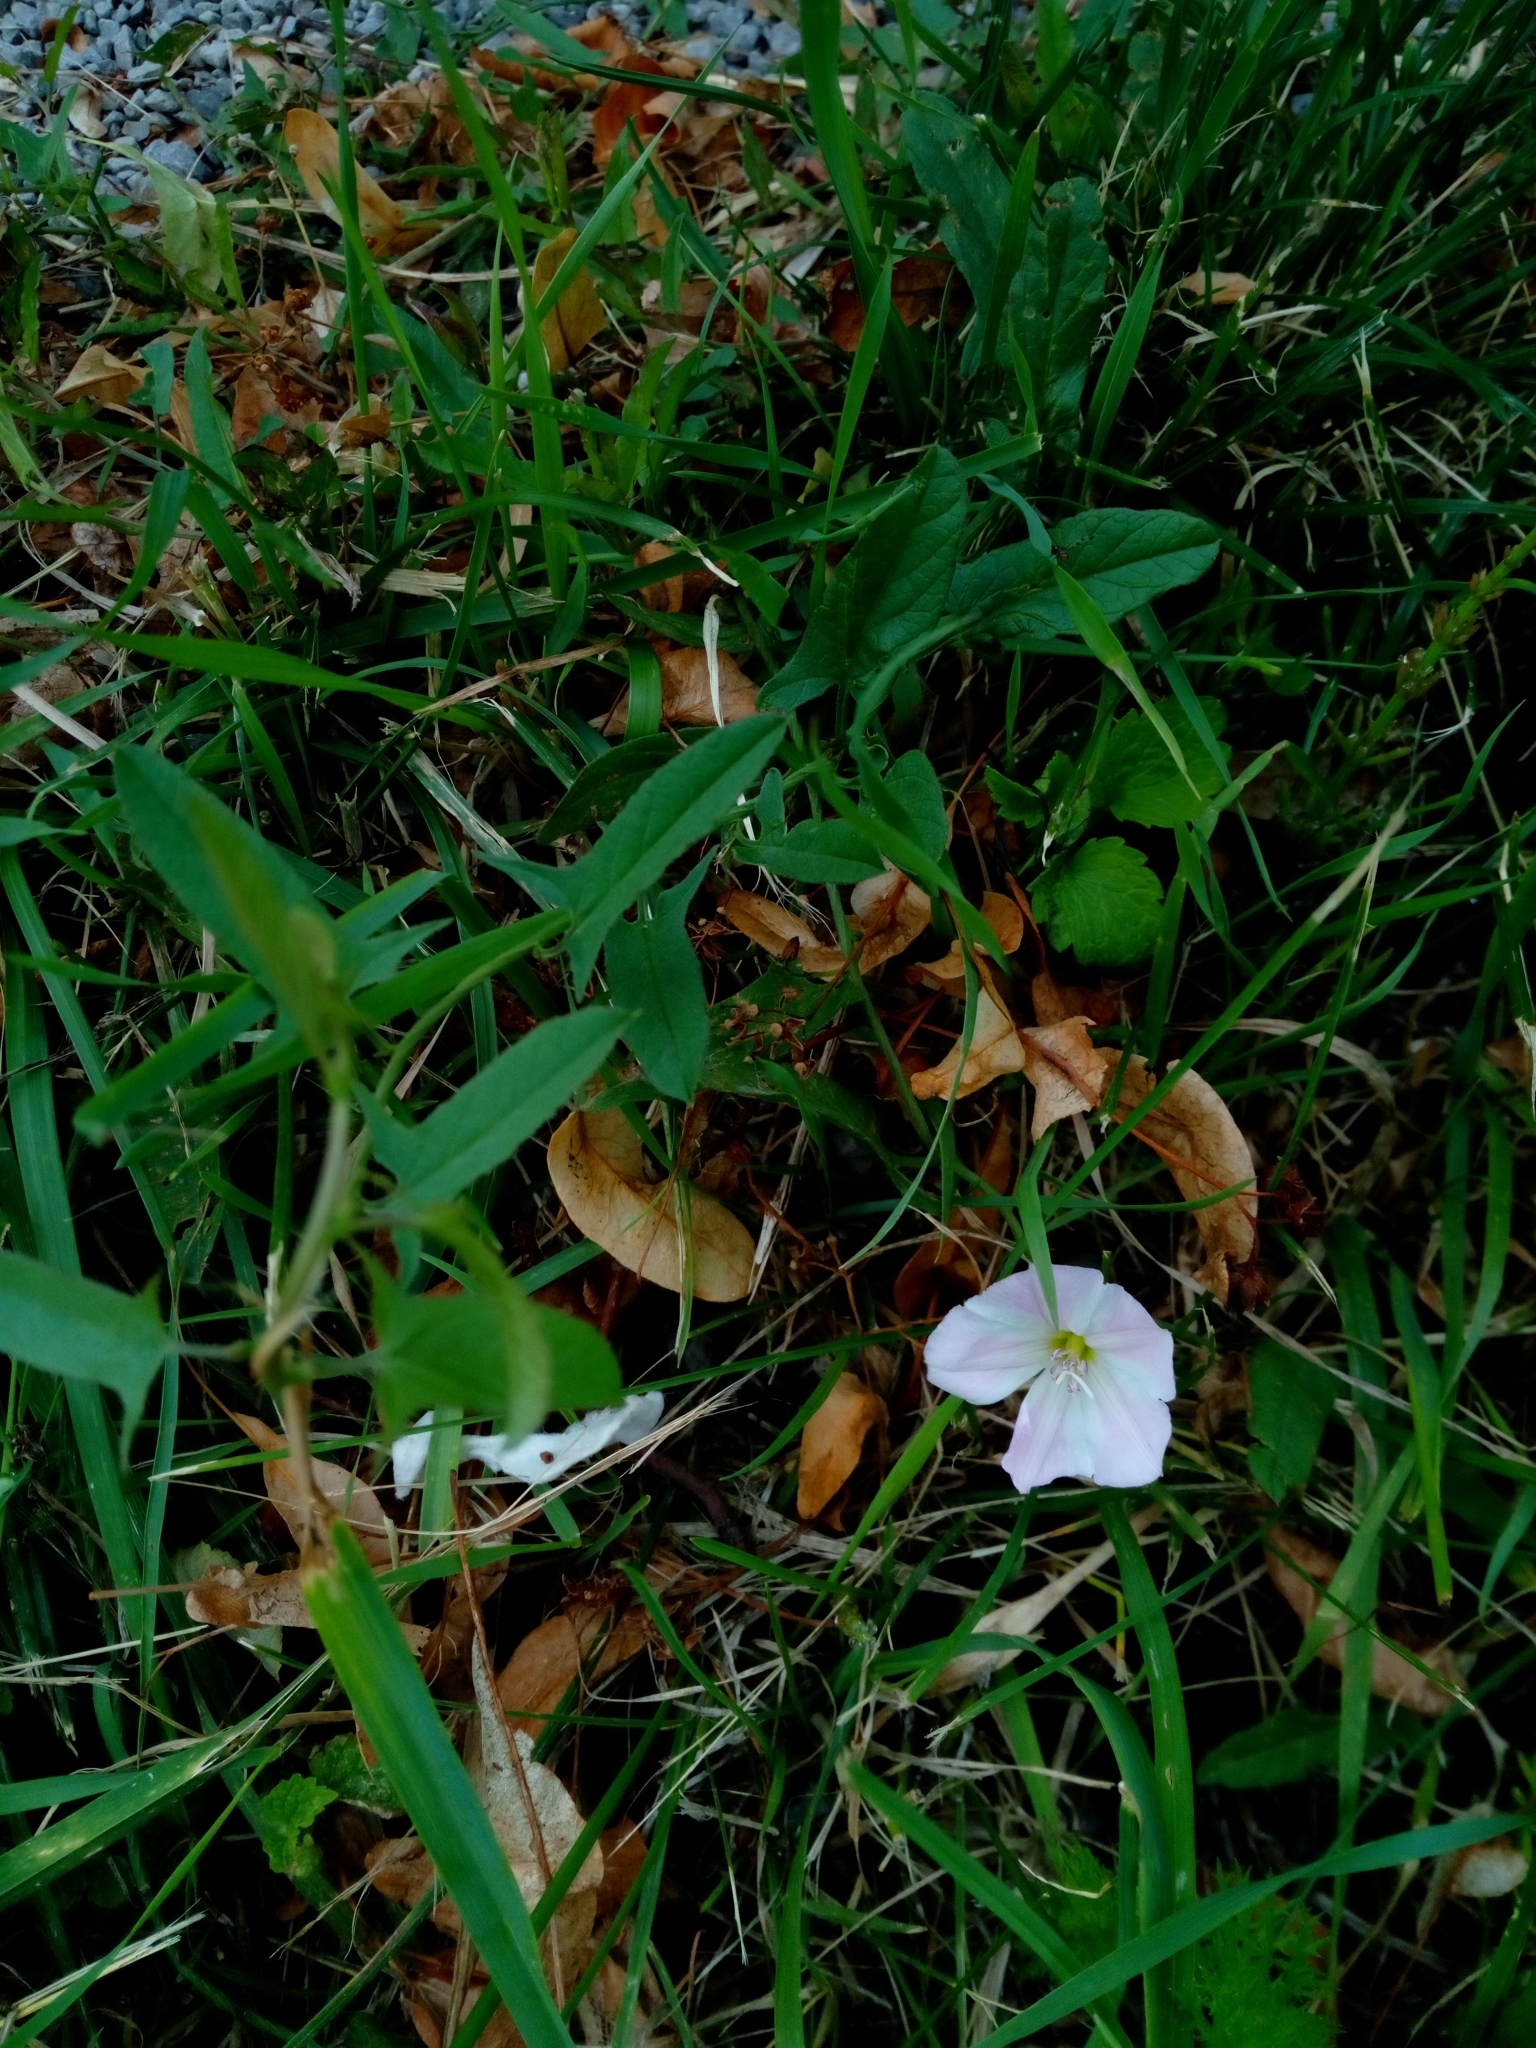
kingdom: Plantae
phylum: Tracheophyta
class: Magnoliopsida
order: Solanales
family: Convolvulaceae
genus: Convolvulus
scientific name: Convolvulus arvensis
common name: Field bindweed
